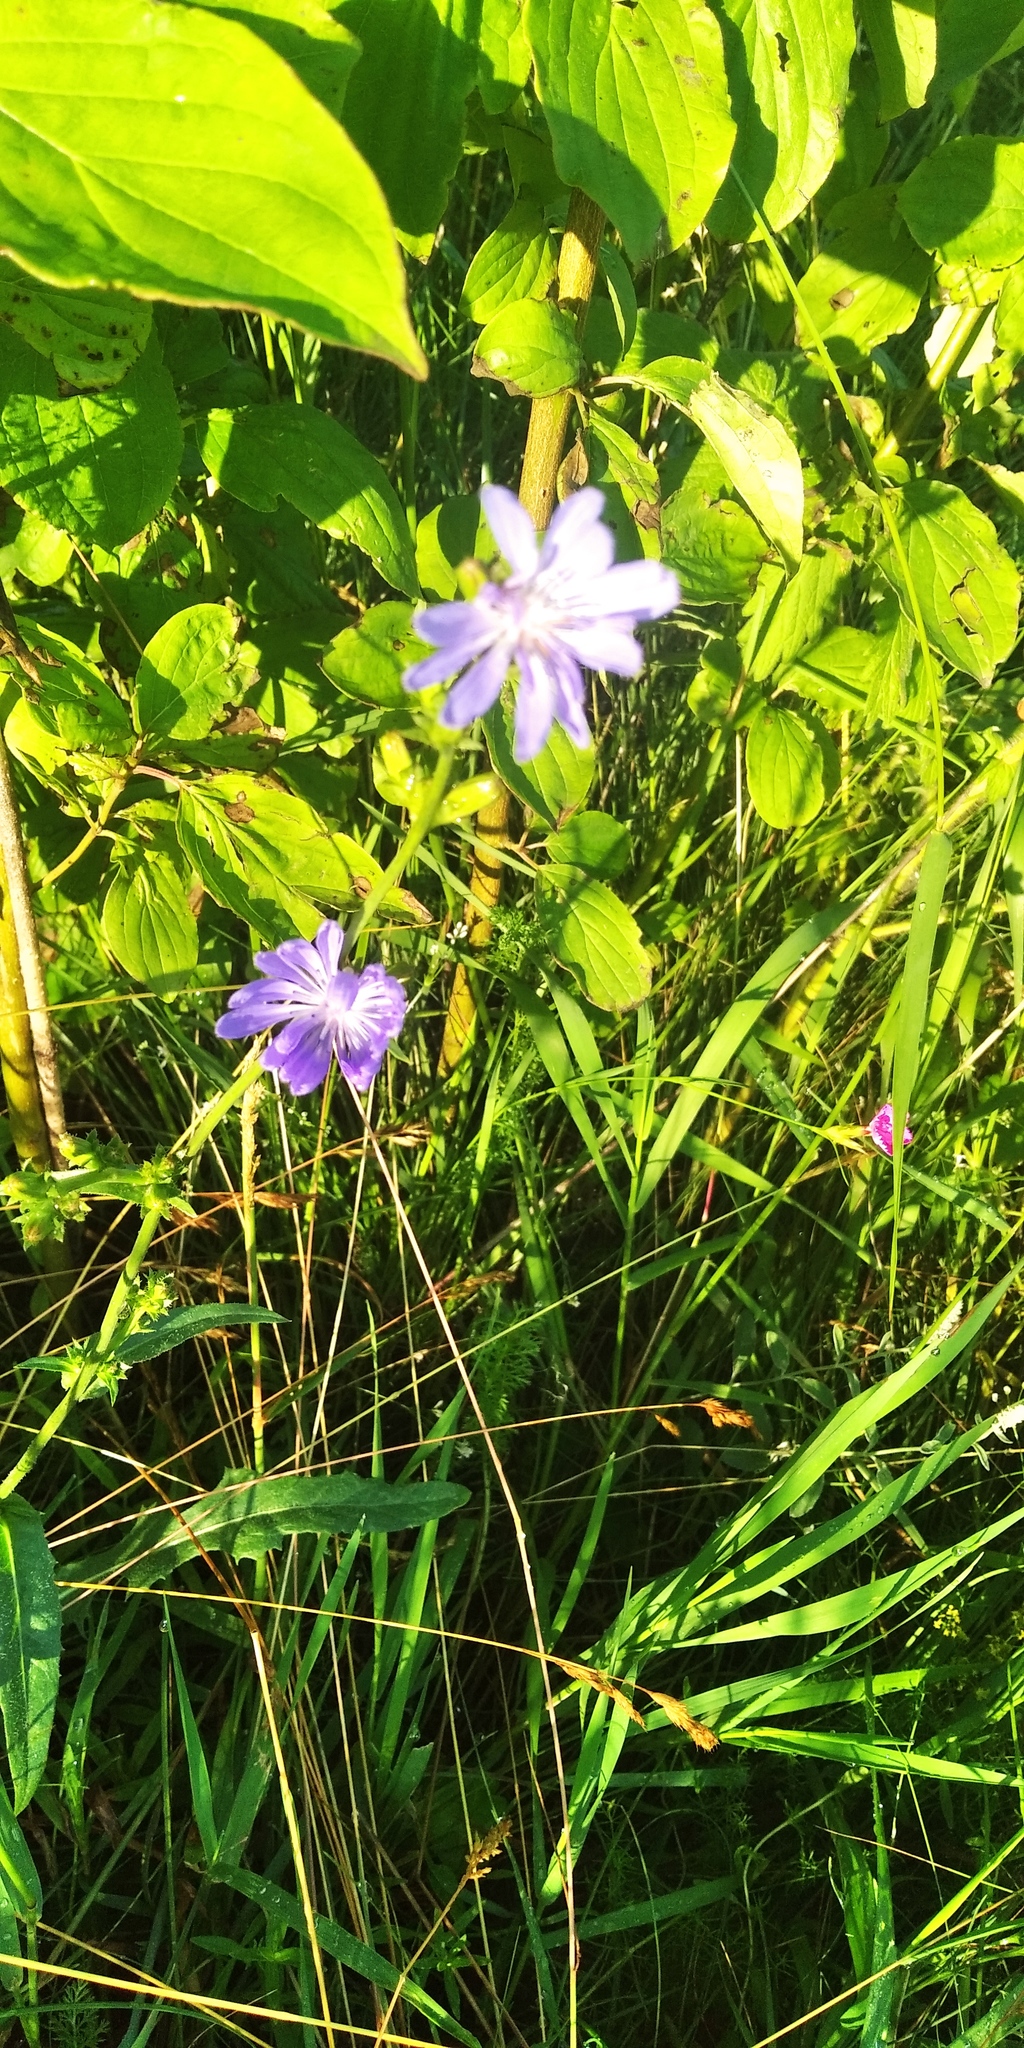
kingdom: Plantae
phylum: Tracheophyta
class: Magnoliopsida
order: Asterales
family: Asteraceae
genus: Cichorium
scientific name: Cichorium intybus
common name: Chicory
